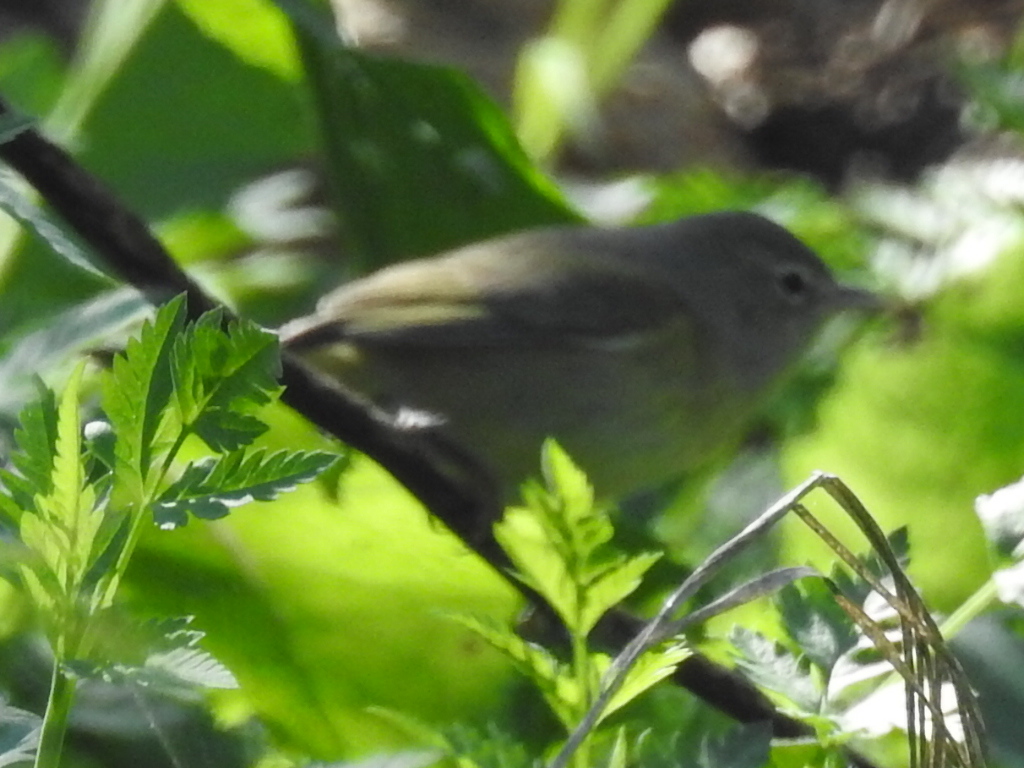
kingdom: Animalia
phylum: Chordata
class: Aves
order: Passeriformes
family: Parulidae
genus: Leiothlypis
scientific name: Leiothlypis celata
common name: Orange-crowned warbler
